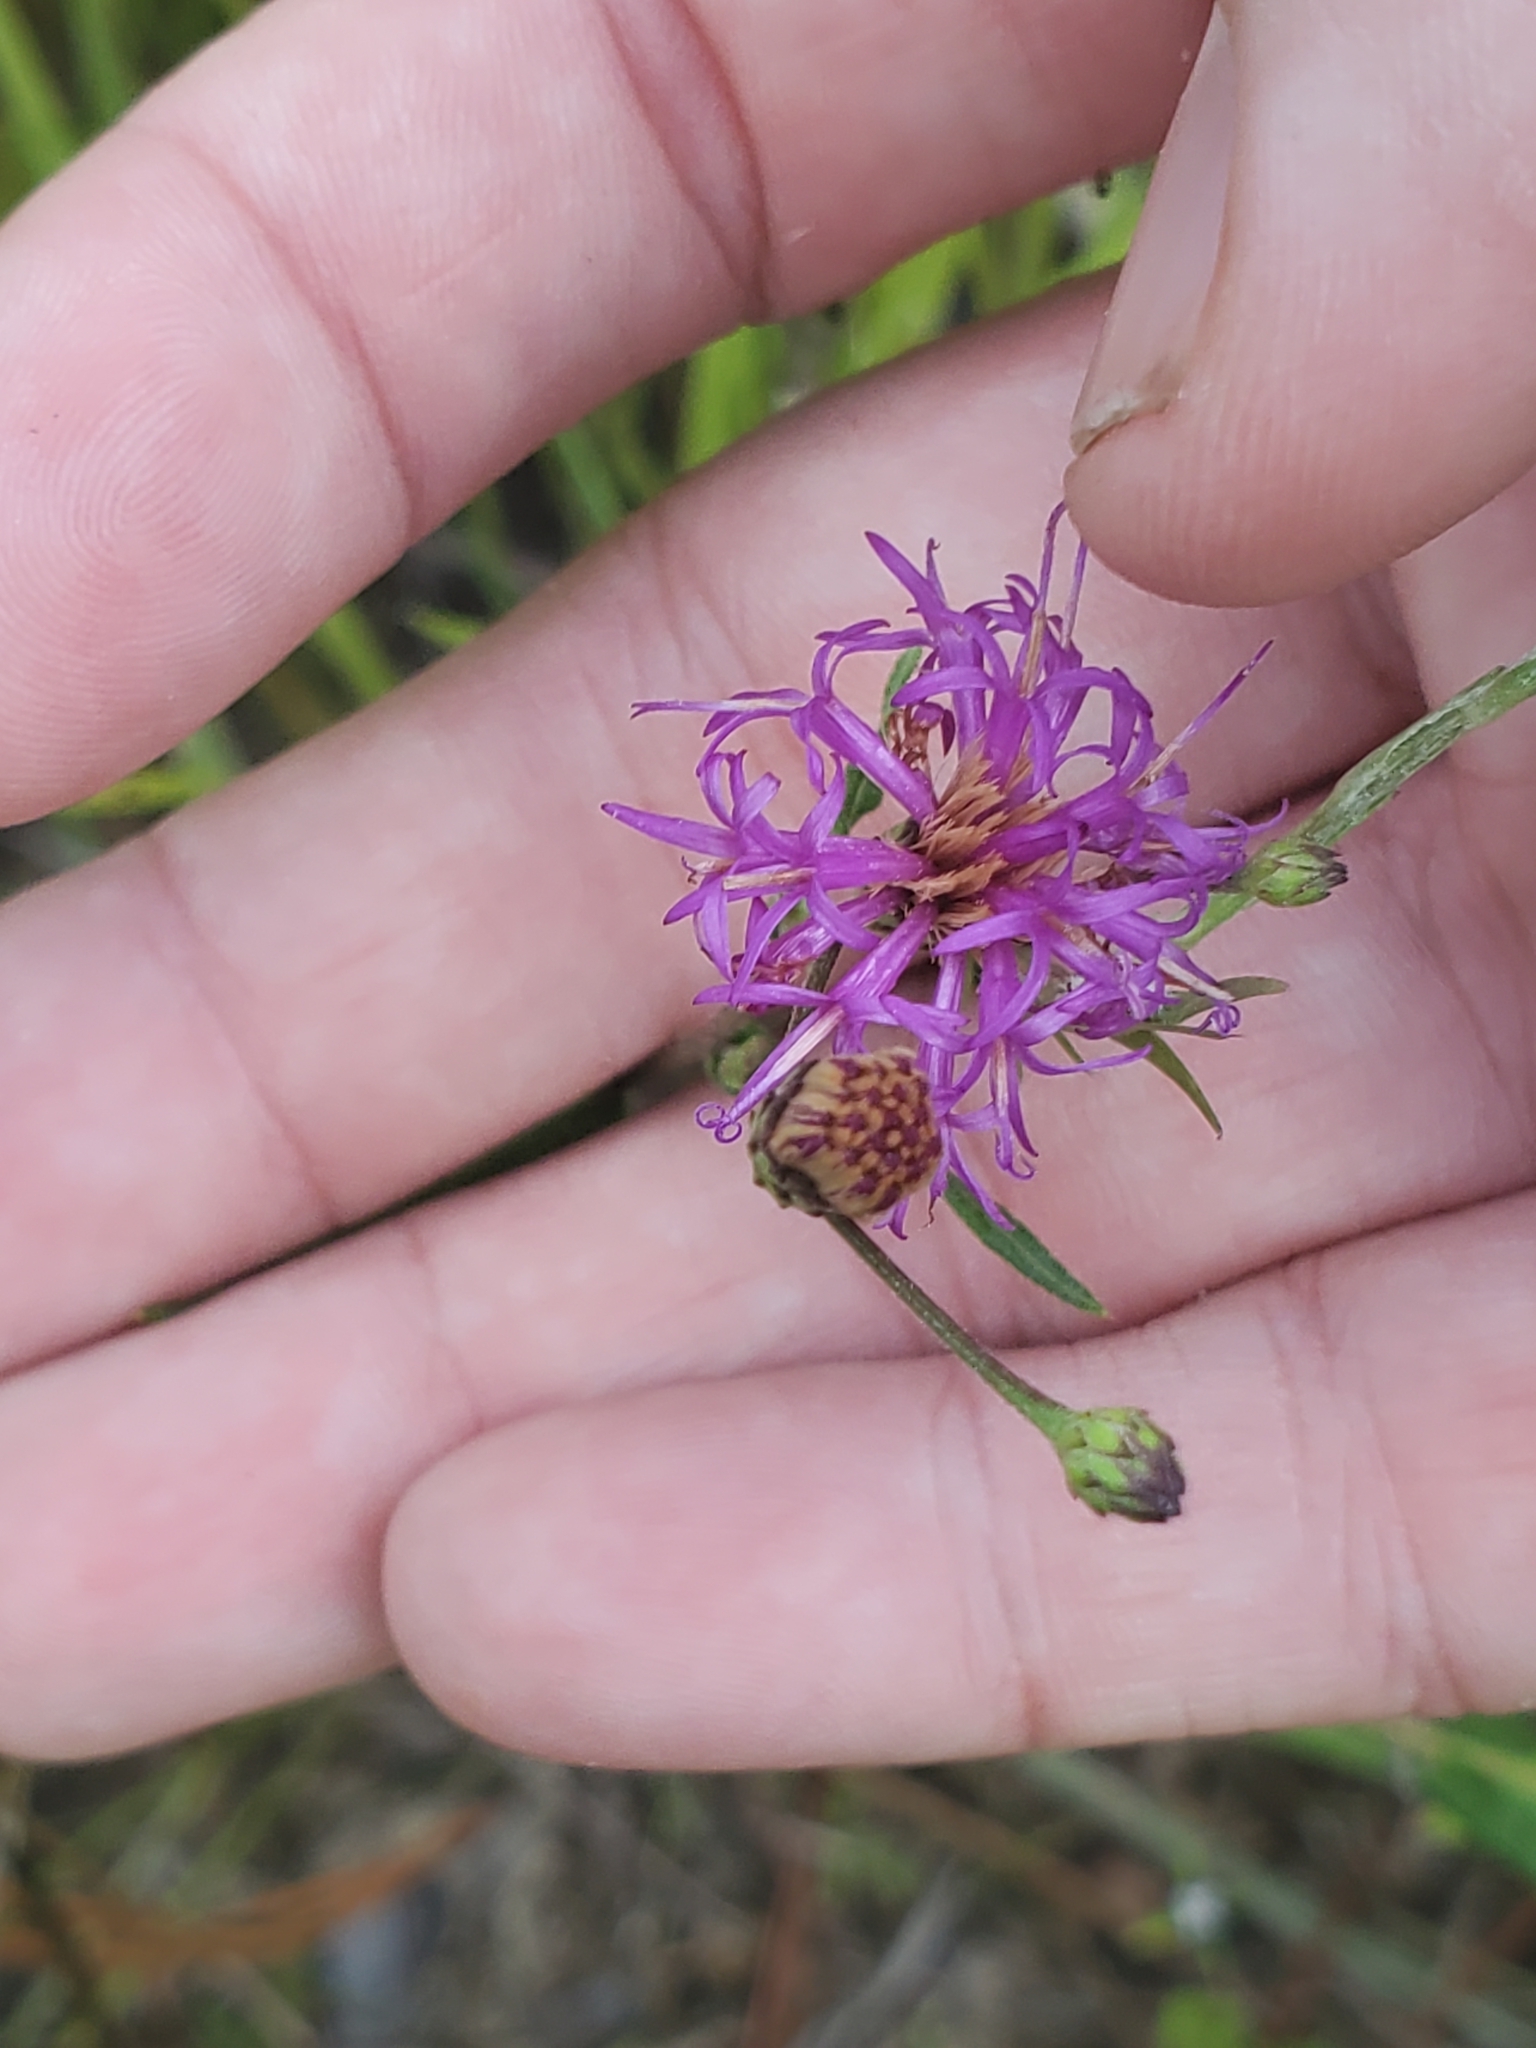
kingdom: Plantae
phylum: Tracheophyta
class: Magnoliopsida
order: Asterales
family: Asteraceae
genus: Vernonia
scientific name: Vernonia texana
